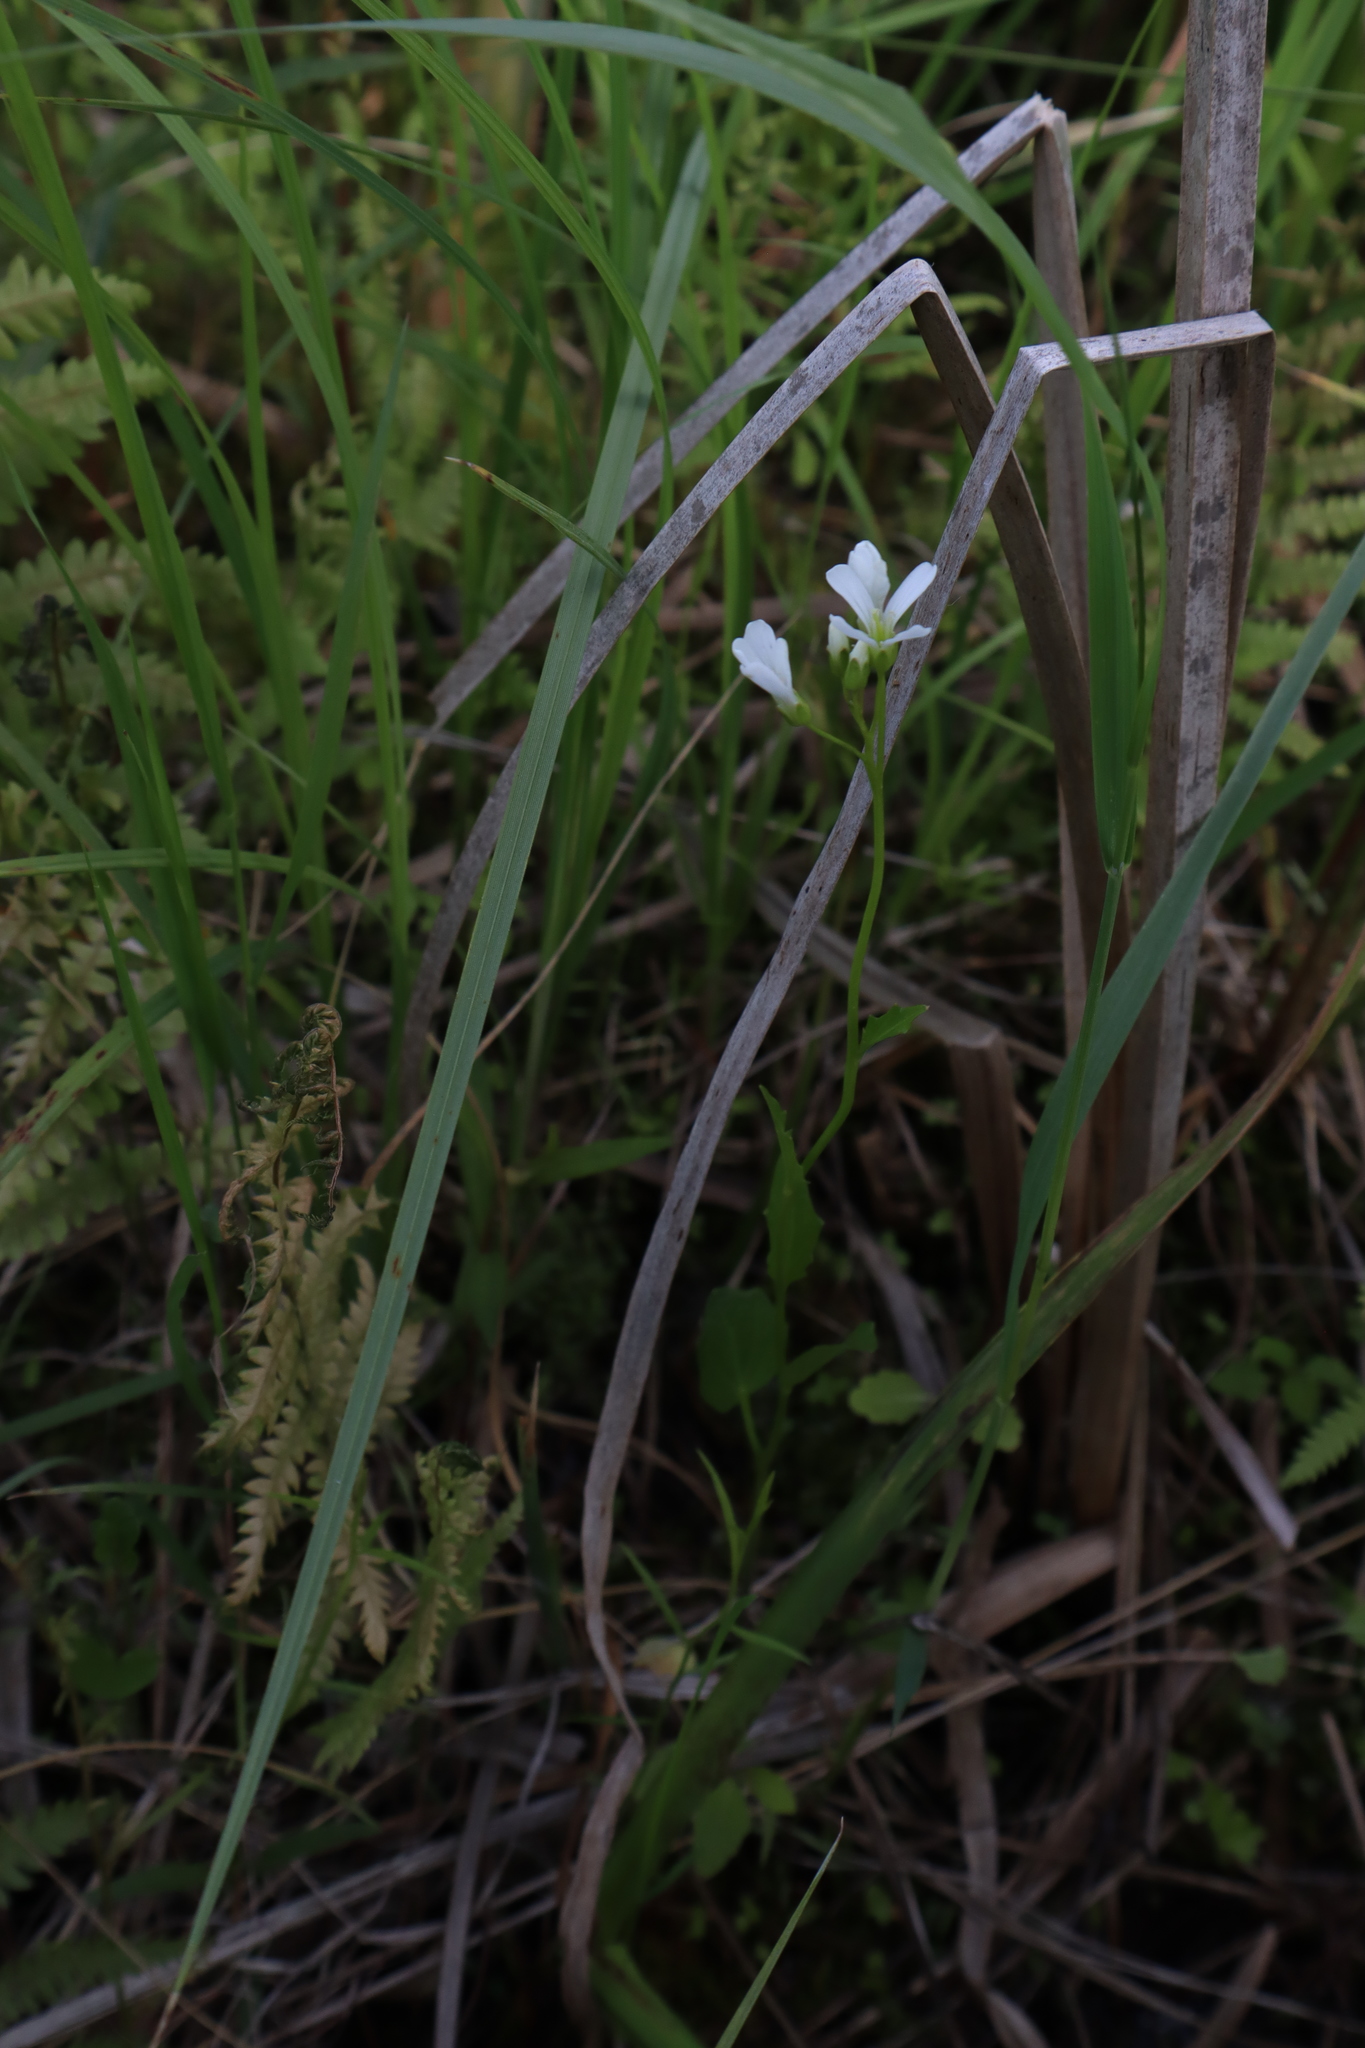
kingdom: Plantae
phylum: Tracheophyta
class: Magnoliopsida
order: Brassicales
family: Brassicaceae
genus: Cardamine
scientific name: Cardamine bulbosa
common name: Spring cress
